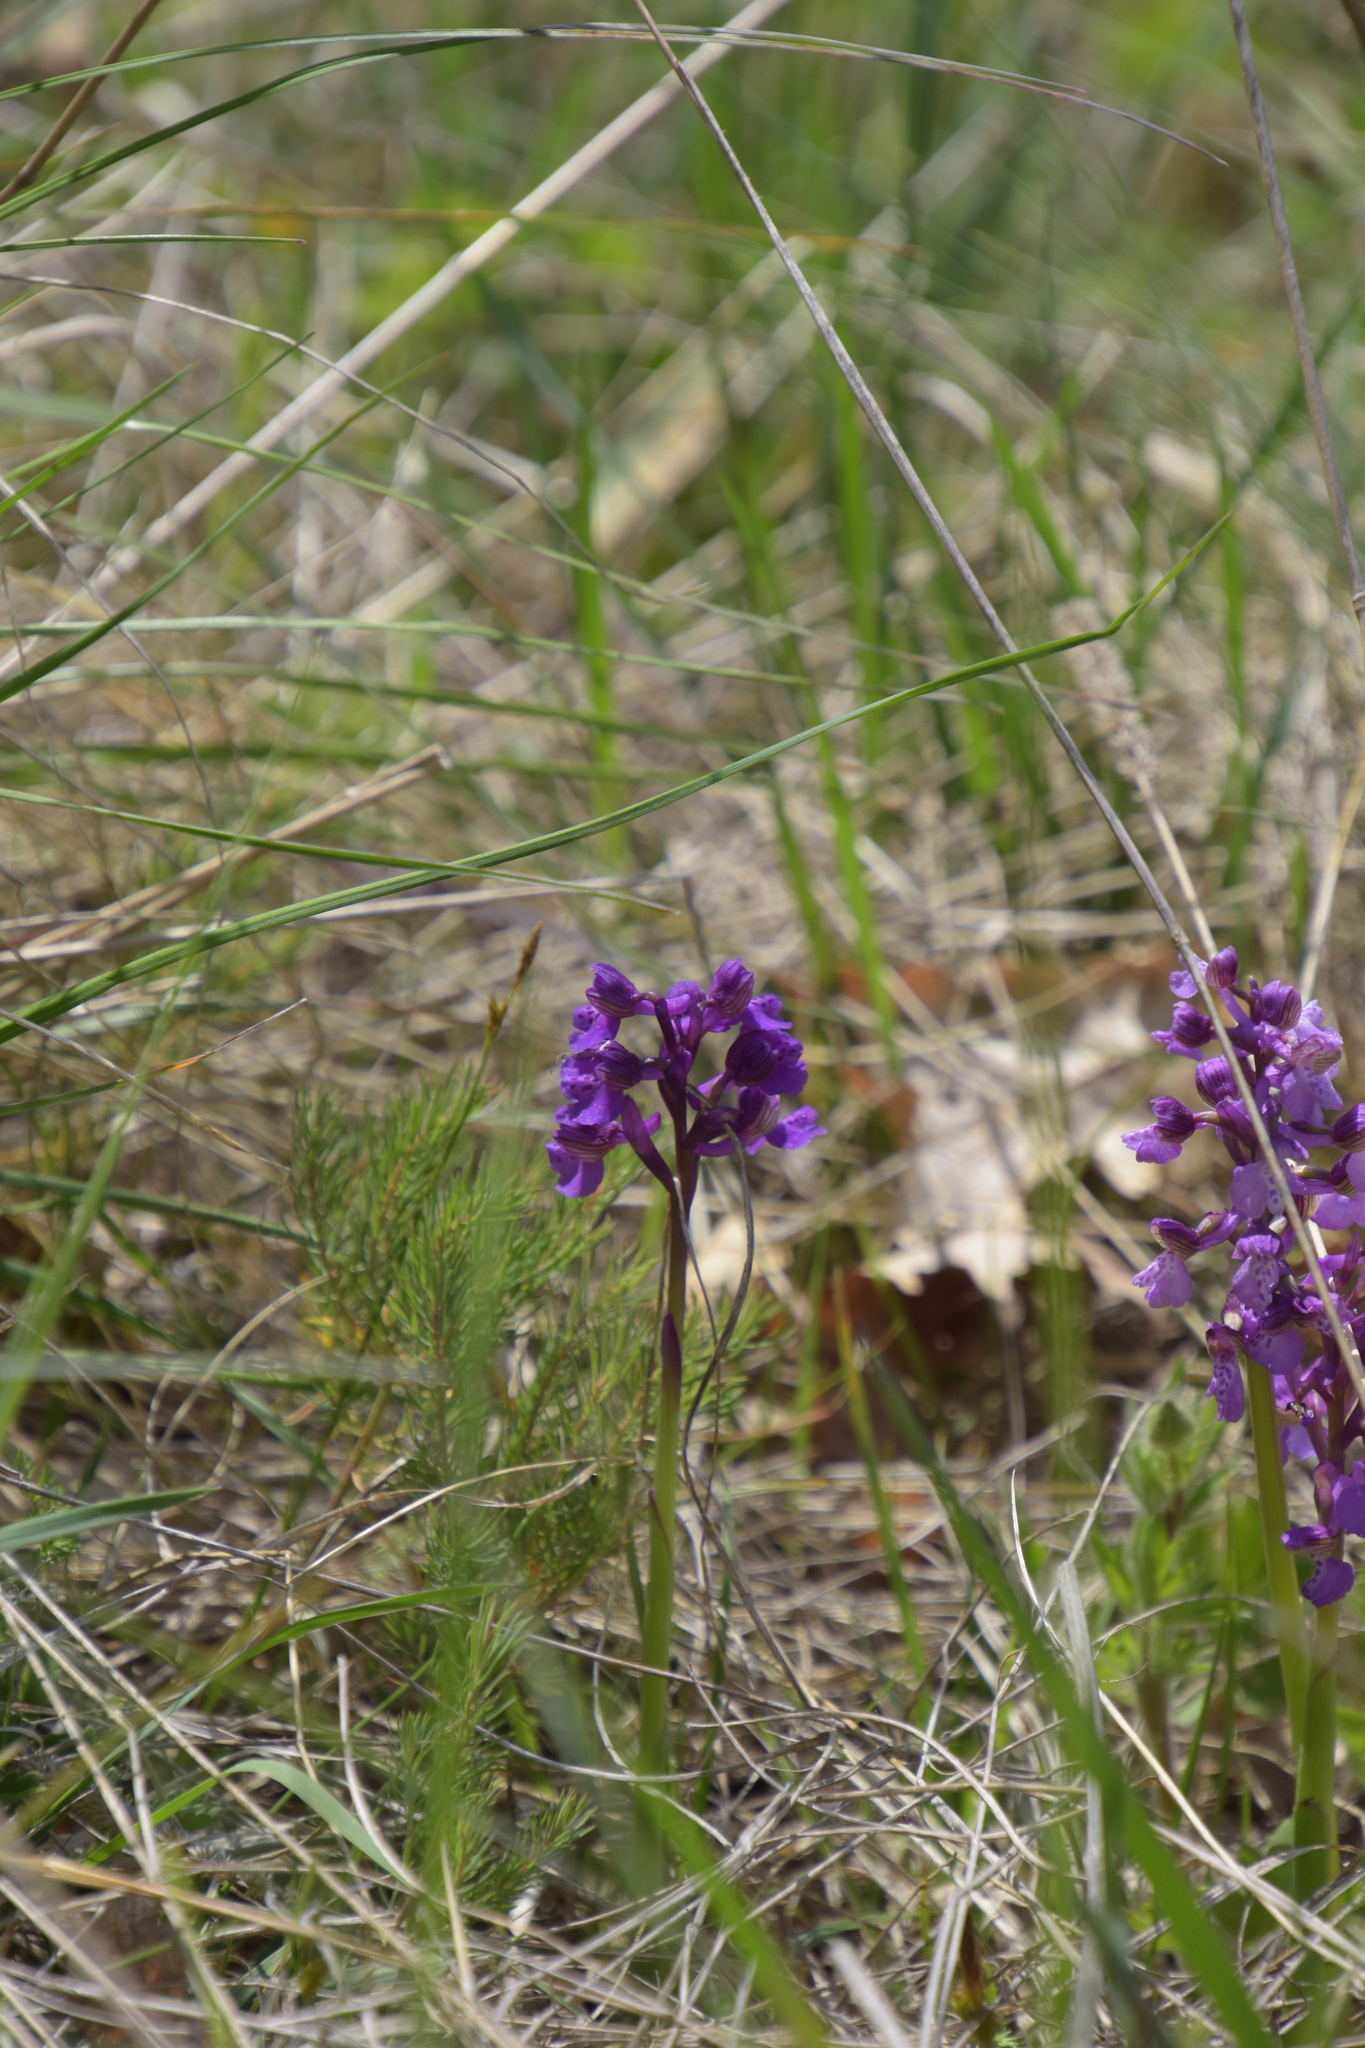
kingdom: Plantae
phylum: Tracheophyta
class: Liliopsida
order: Asparagales
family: Orchidaceae
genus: Anacamptis
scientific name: Anacamptis morio
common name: Green-winged orchid
